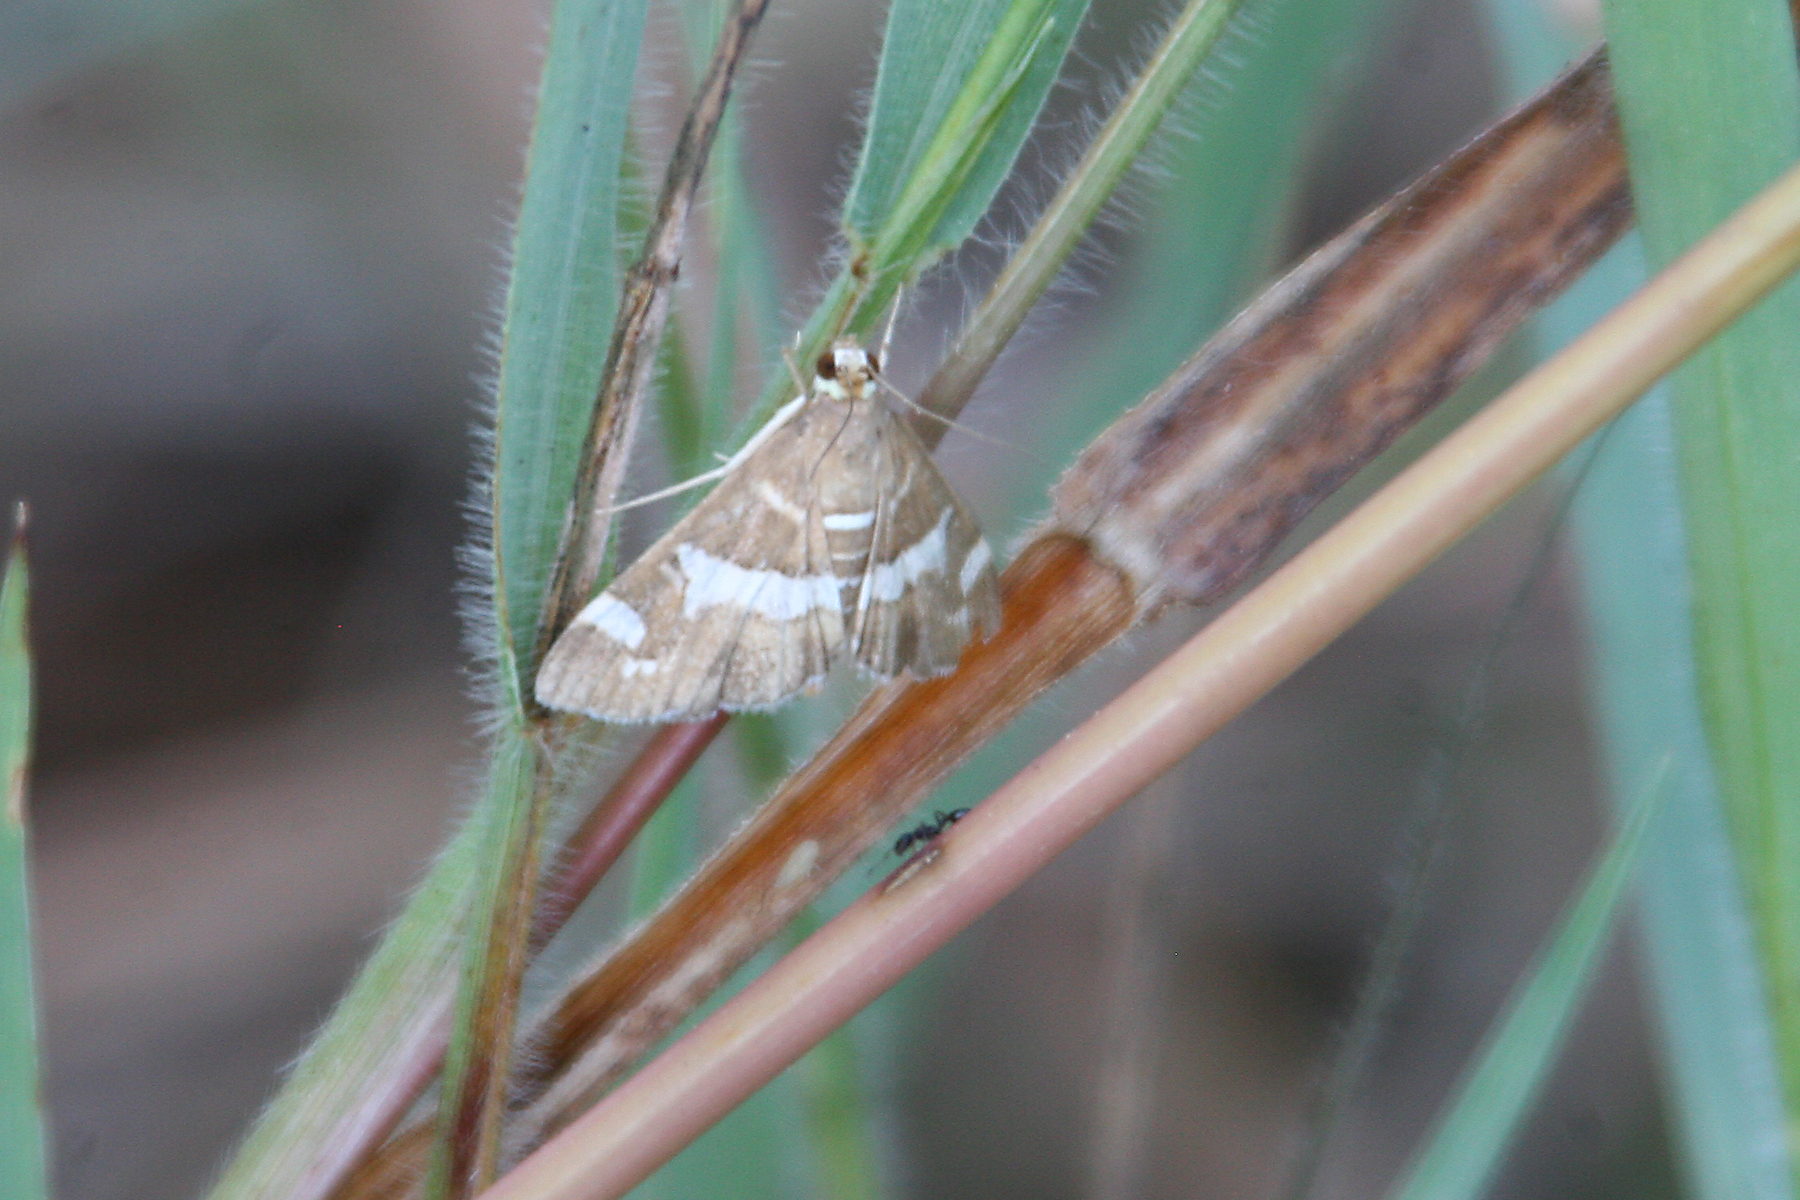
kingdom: Animalia
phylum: Arthropoda
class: Insecta
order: Lepidoptera
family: Crambidae
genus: Spoladea
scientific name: Spoladea recurvalis
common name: Beet webworm moth
